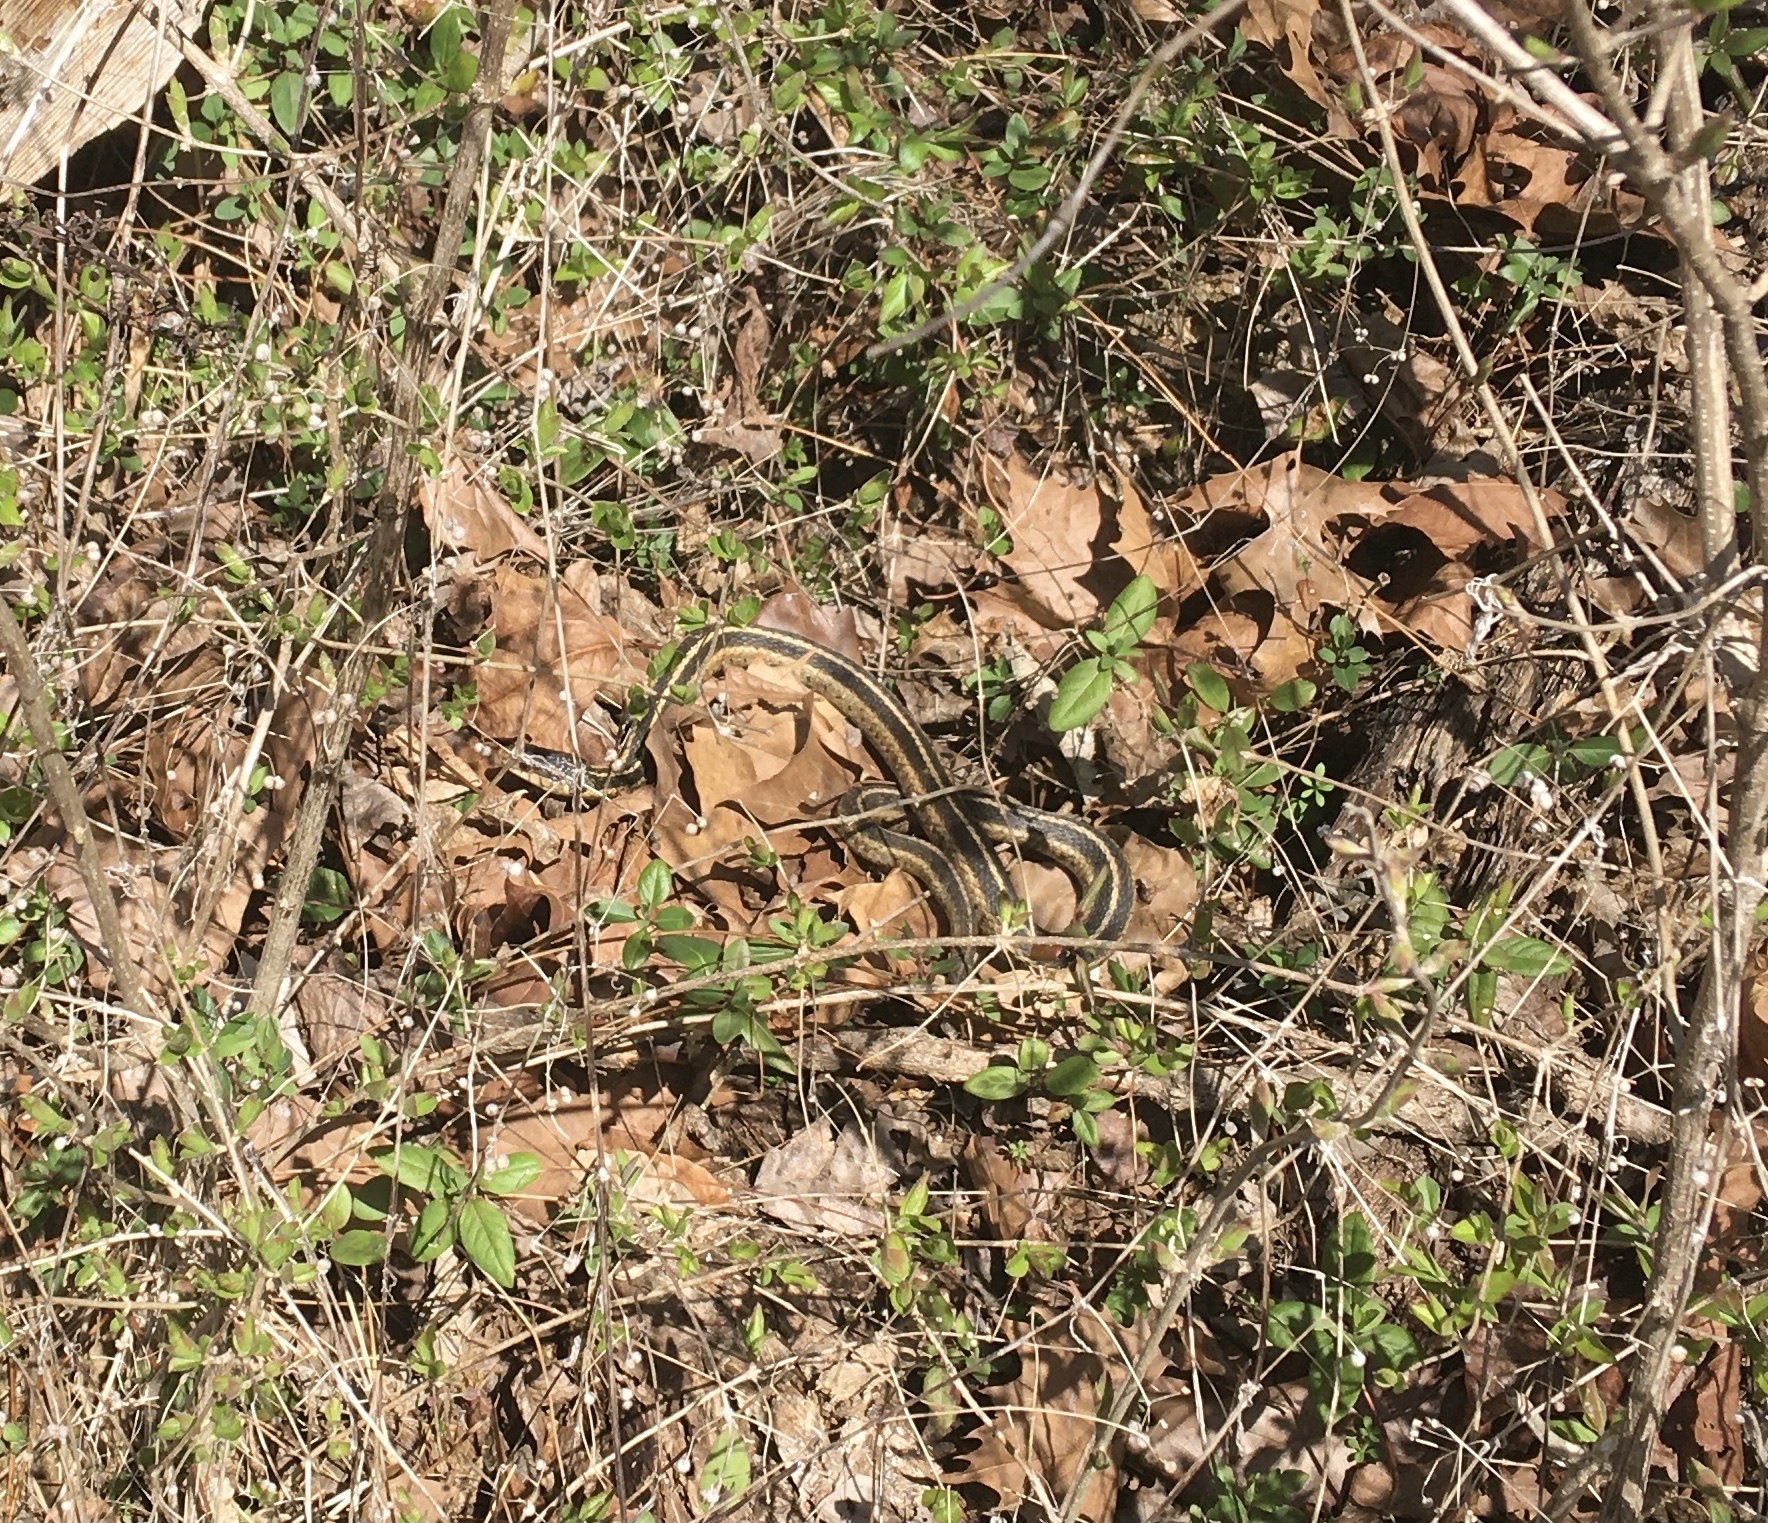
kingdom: Animalia
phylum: Chordata
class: Squamata
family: Colubridae
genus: Thamnophis
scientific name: Thamnophis sirtalis
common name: Common garter snake
